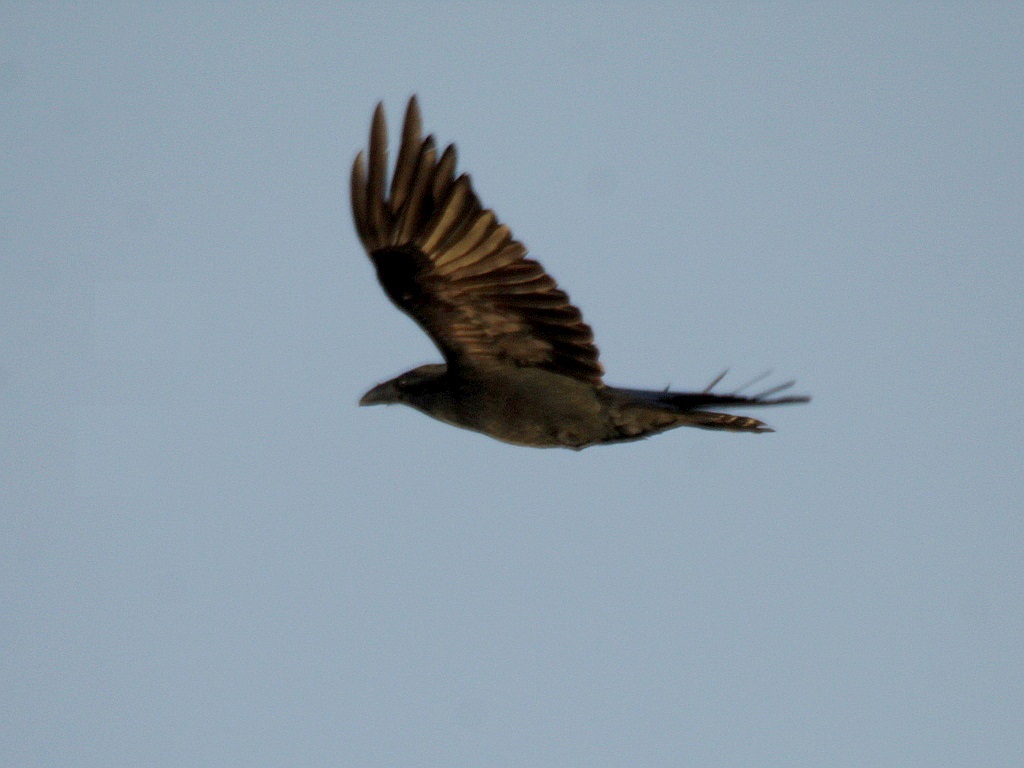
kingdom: Animalia
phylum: Chordata
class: Aves
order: Passeriformes
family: Corvidae
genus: Corvus
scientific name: Corvus corax
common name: Common raven
